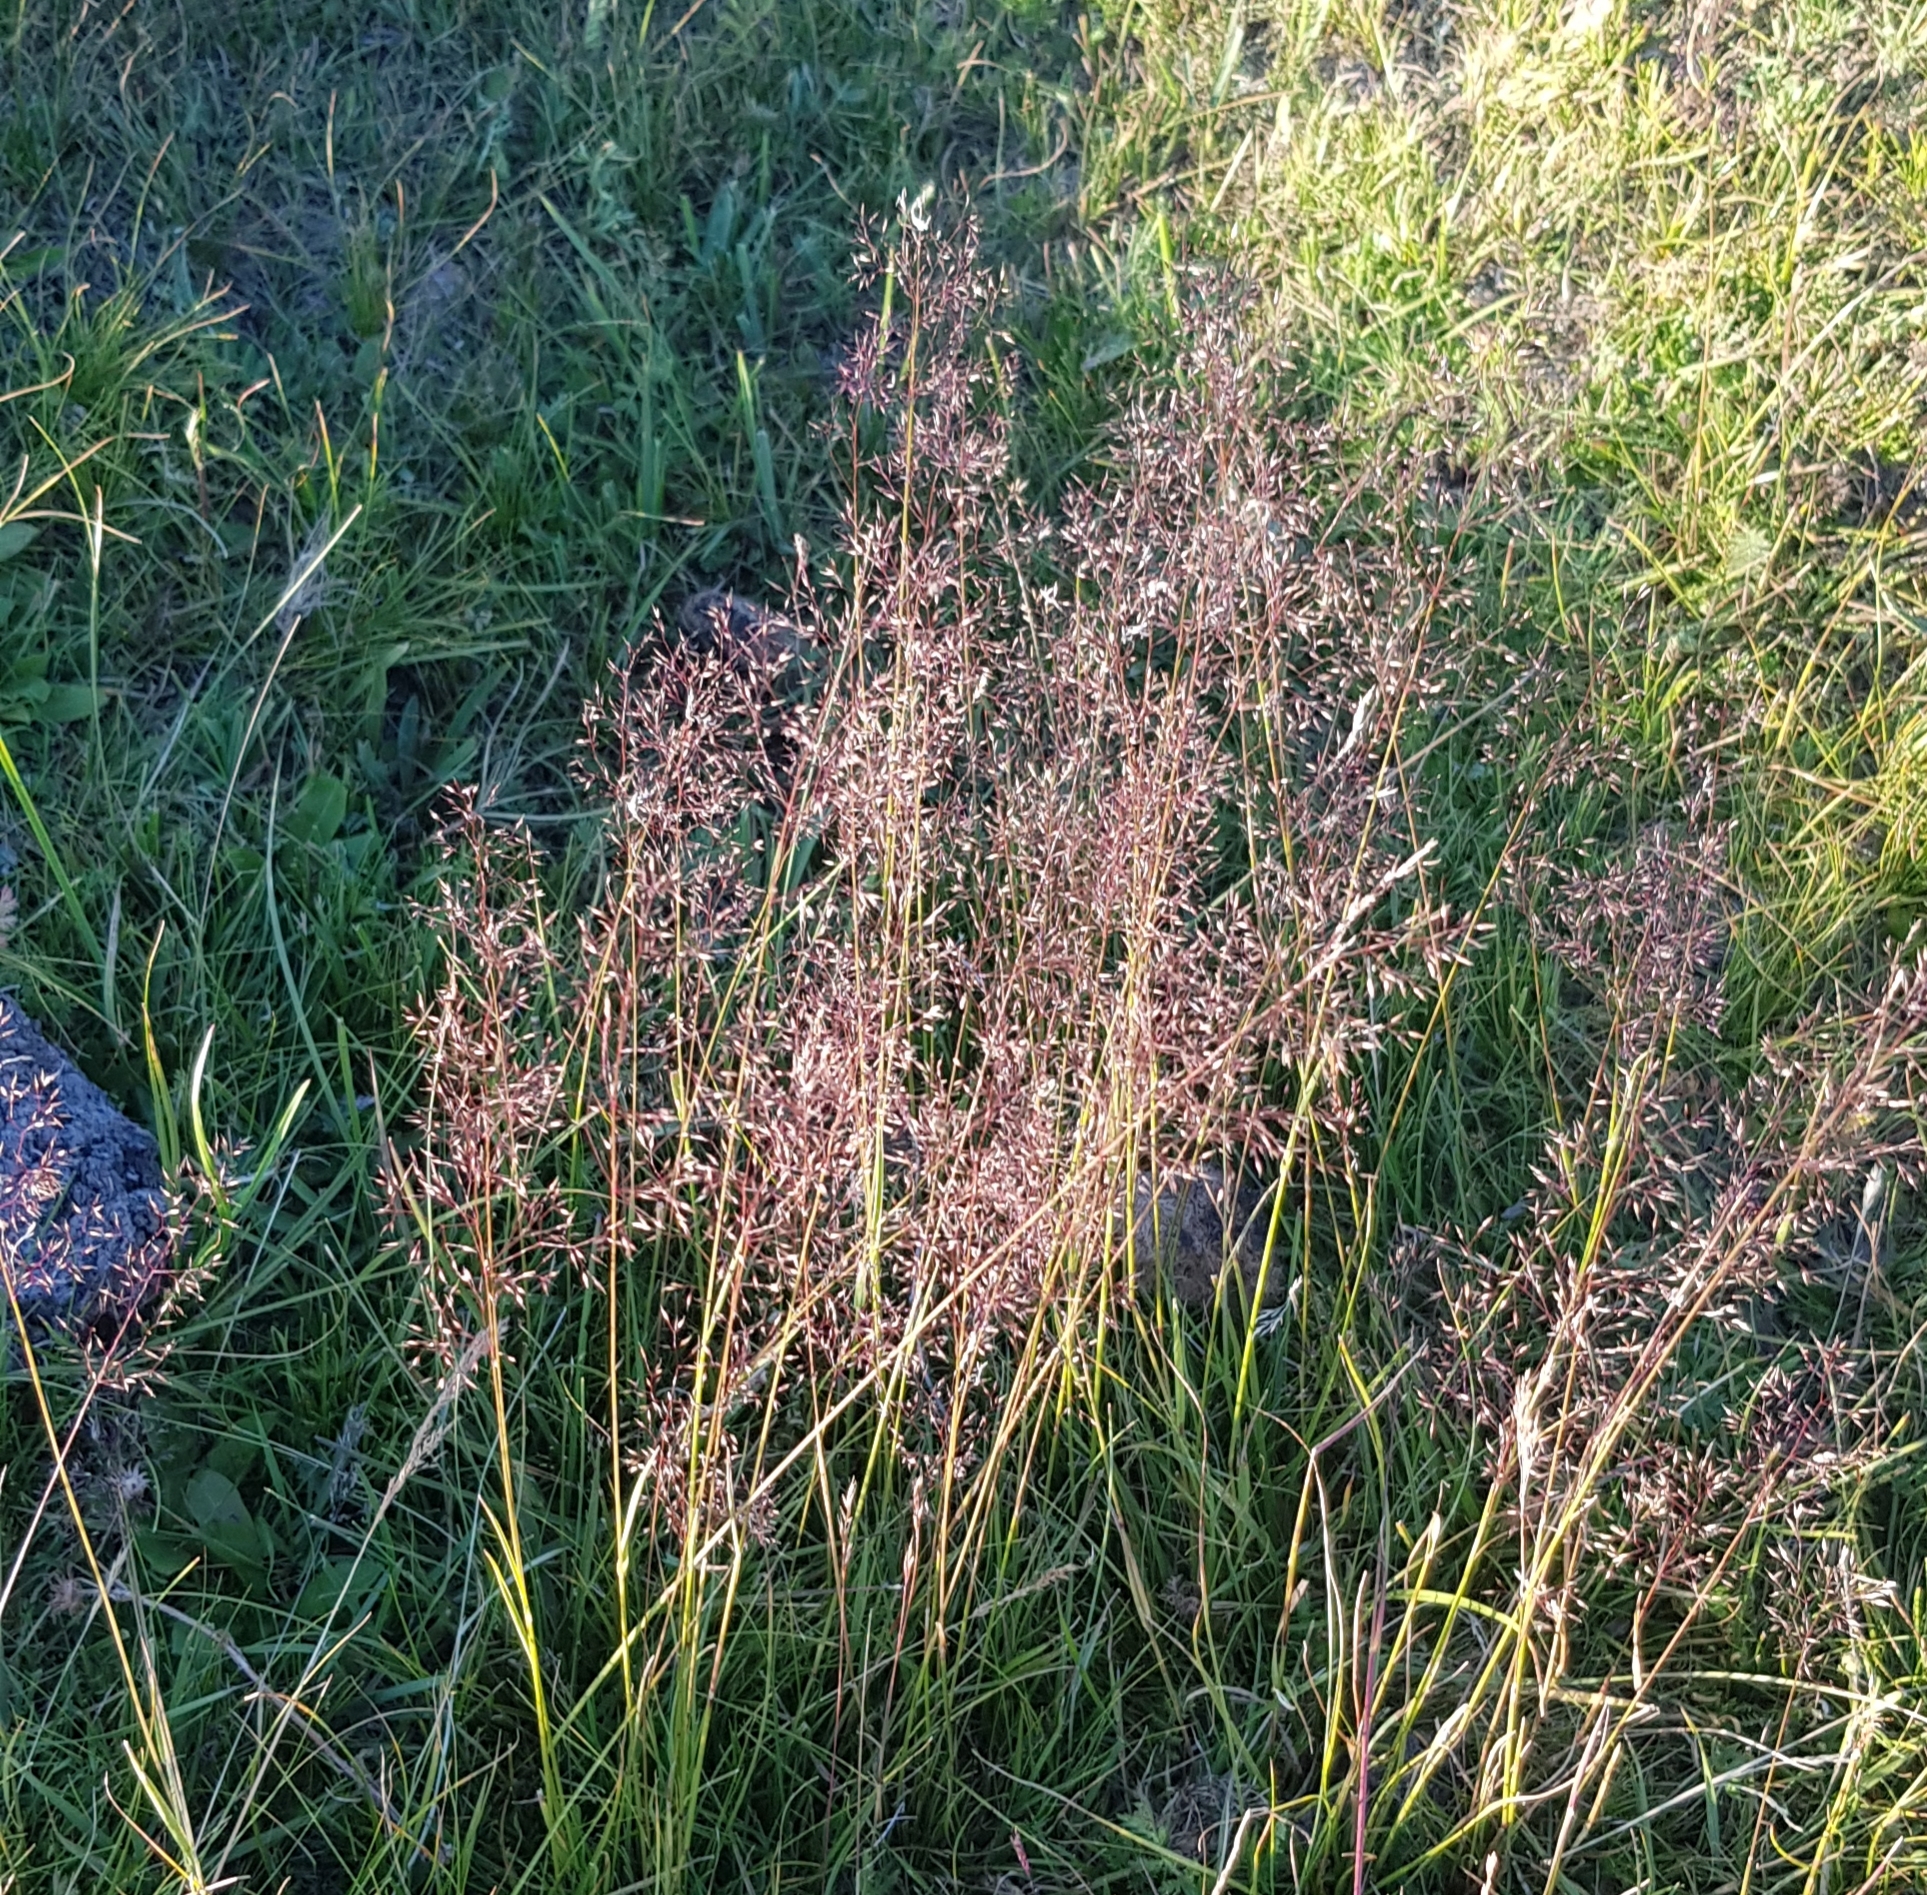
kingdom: Plantae
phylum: Tracheophyta
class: Liliopsida
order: Poales
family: Poaceae
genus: Agrostis
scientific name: Agrostis gigantea
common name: Black bent
